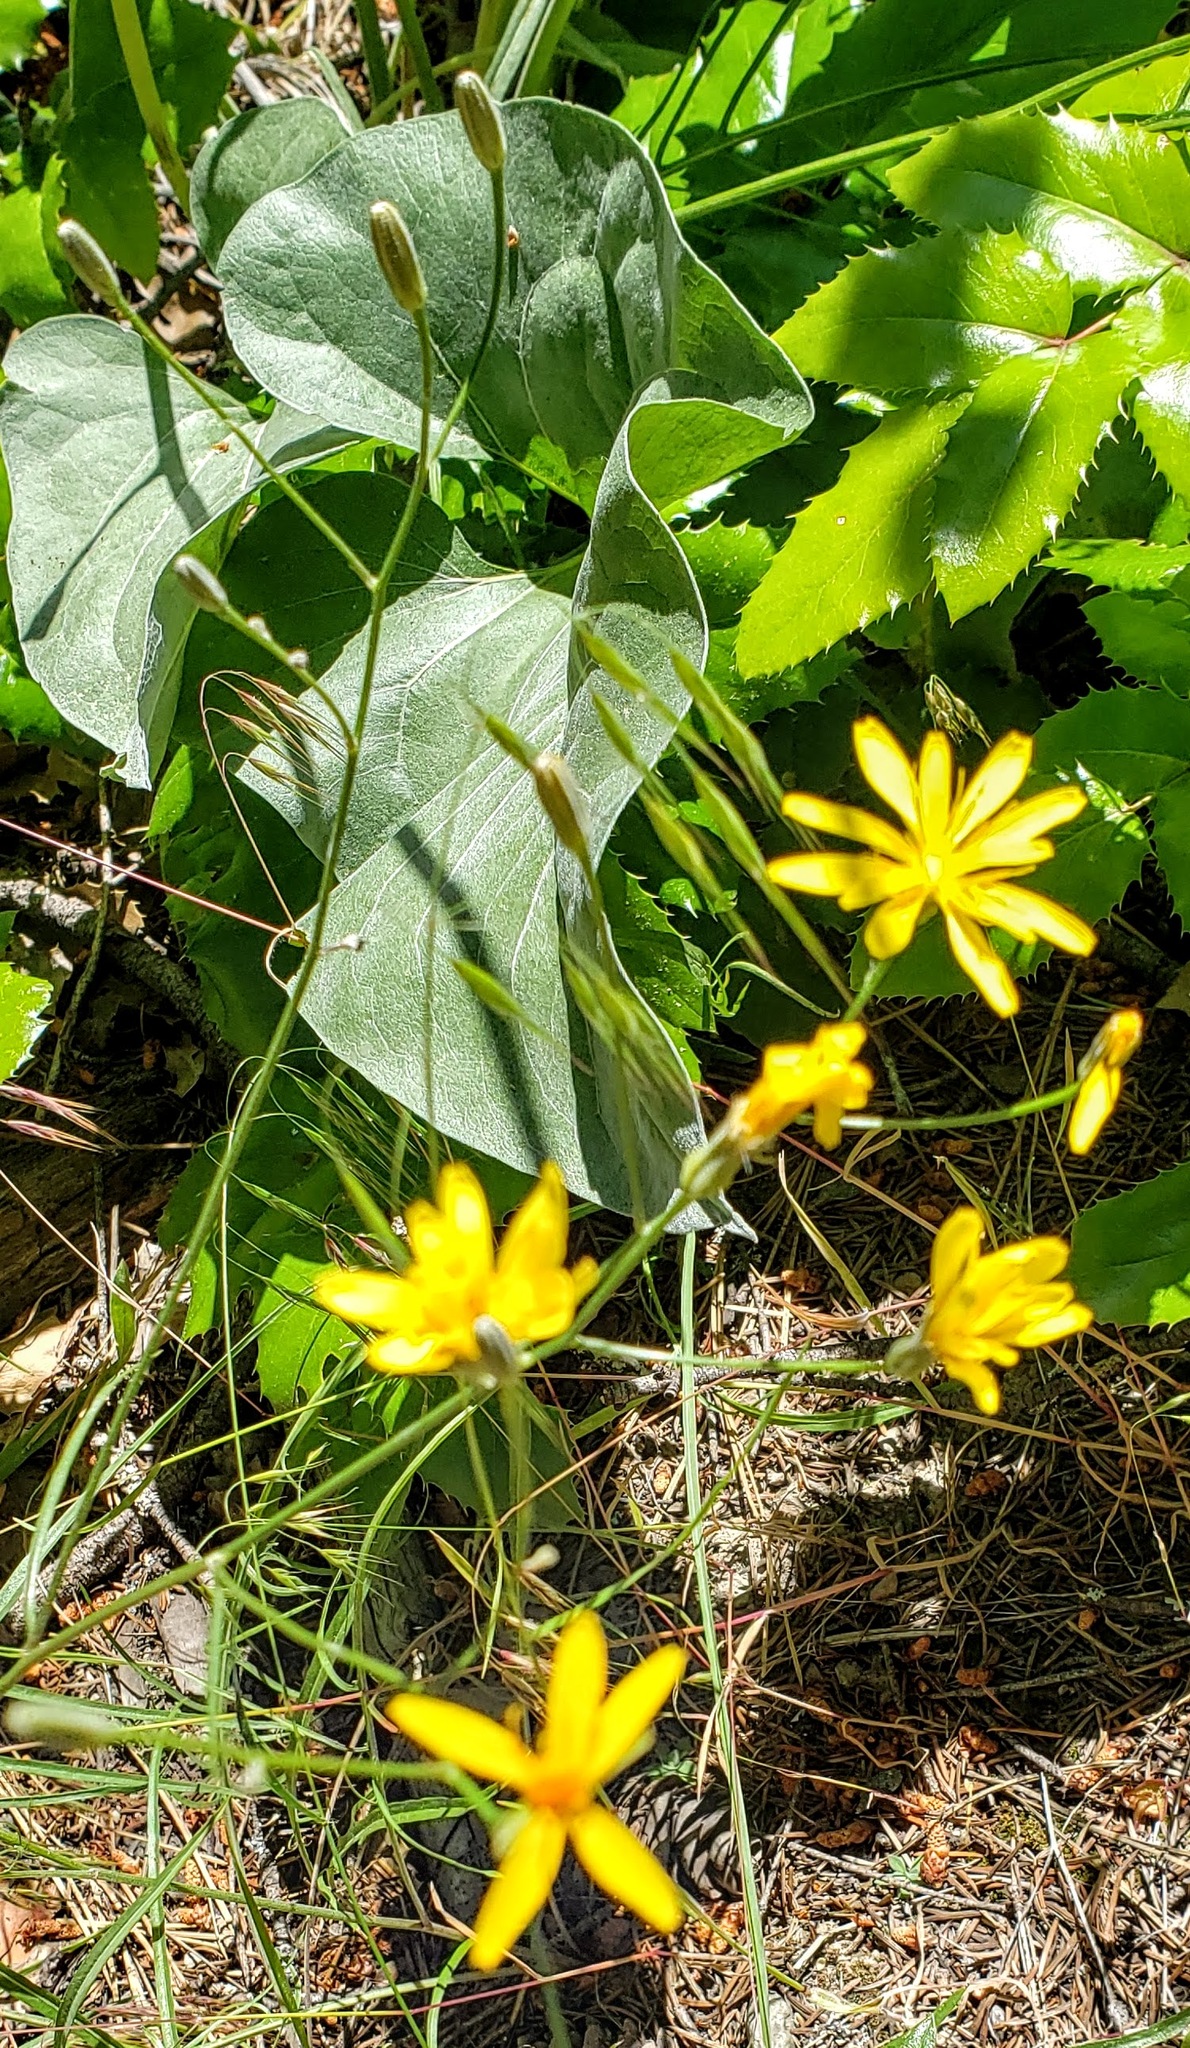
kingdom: Plantae
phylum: Tracheophyta
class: Magnoliopsida
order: Asterales
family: Asteraceae
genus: Crepis
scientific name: Crepis atribarba
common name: Dark hawk's-beard
